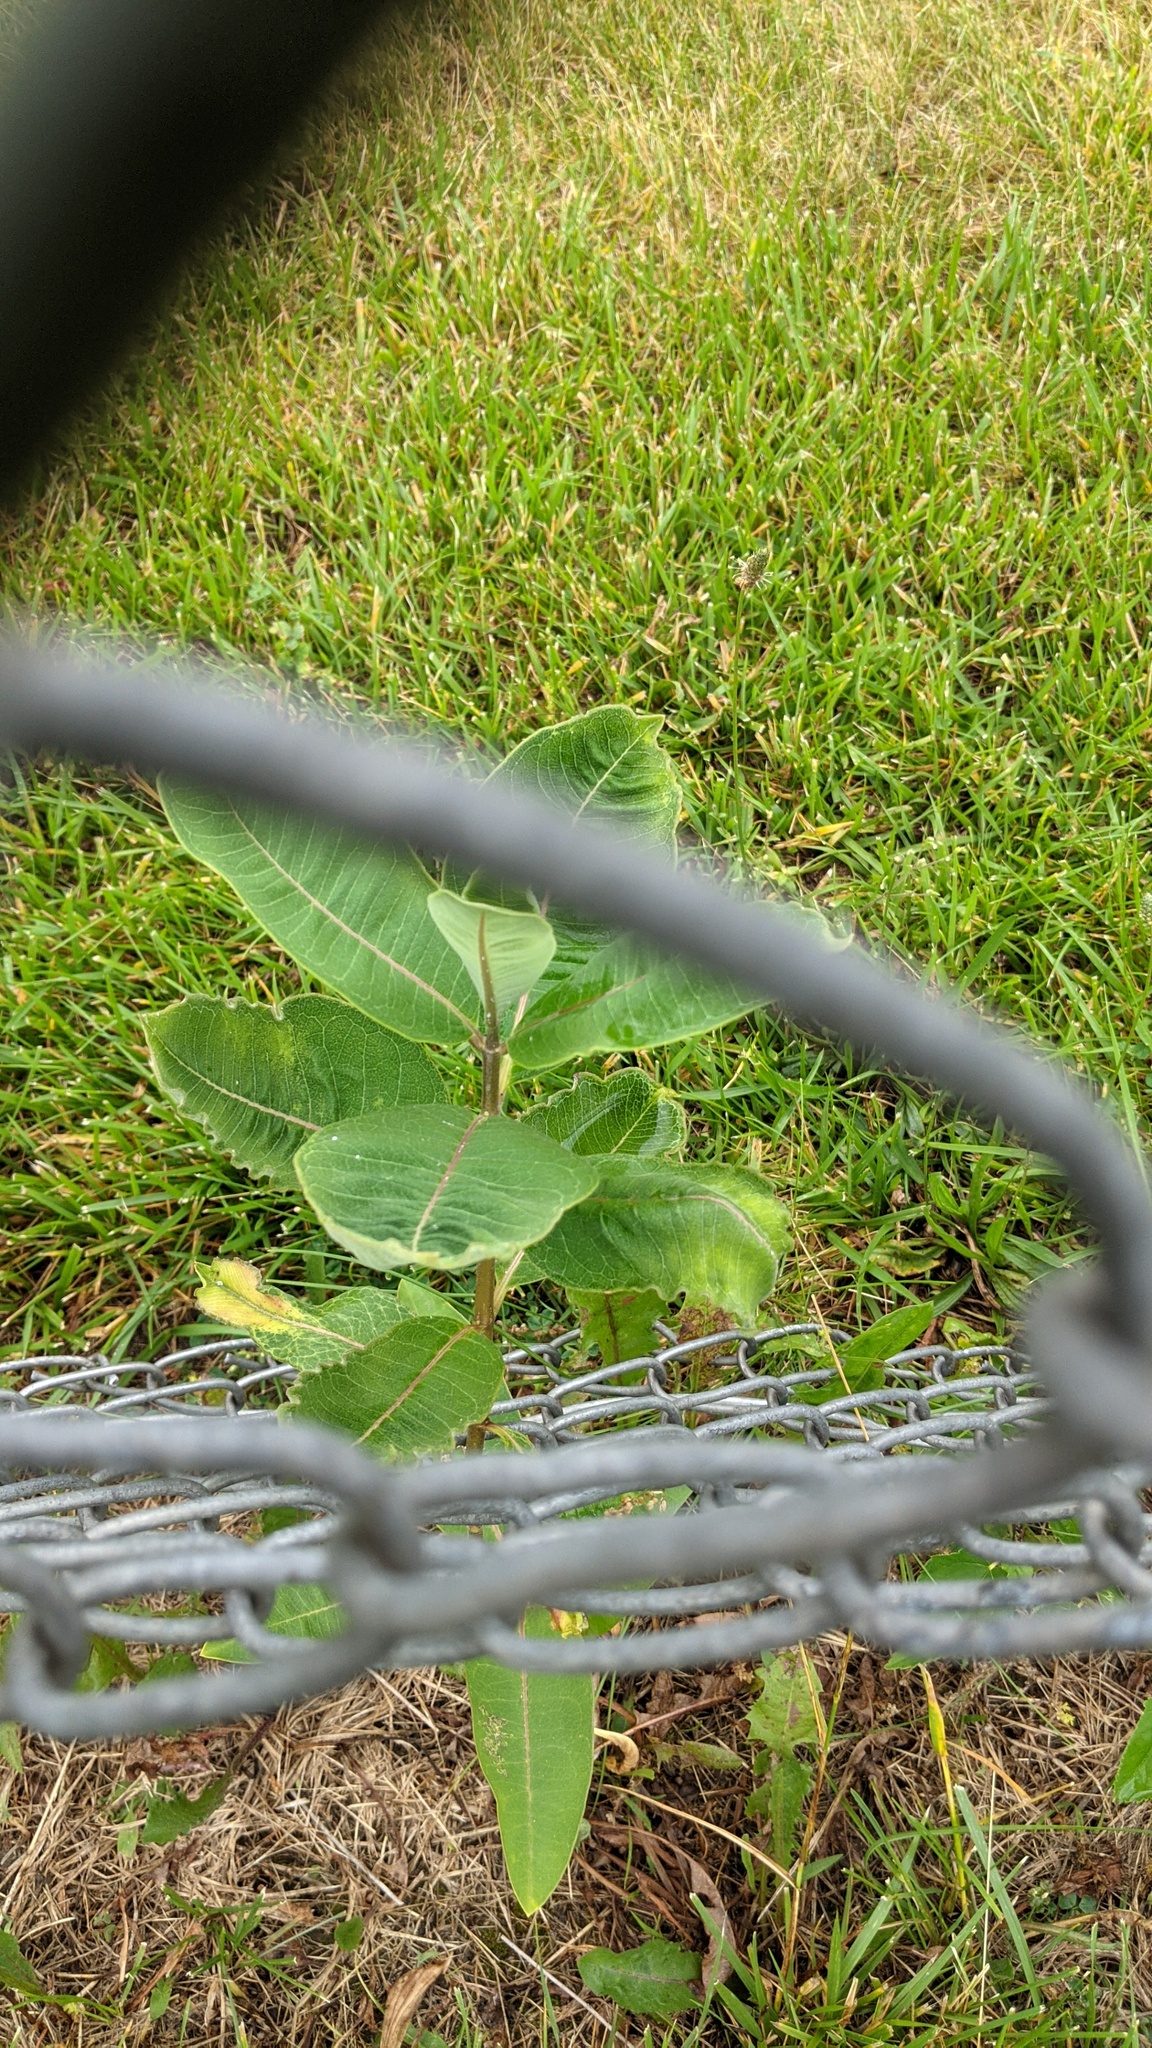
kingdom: Plantae
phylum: Tracheophyta
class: Magnoliopsida
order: Gentianales
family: Apocynaceae
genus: Asclepias
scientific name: Asclepias syriaca
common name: Common milkweed
